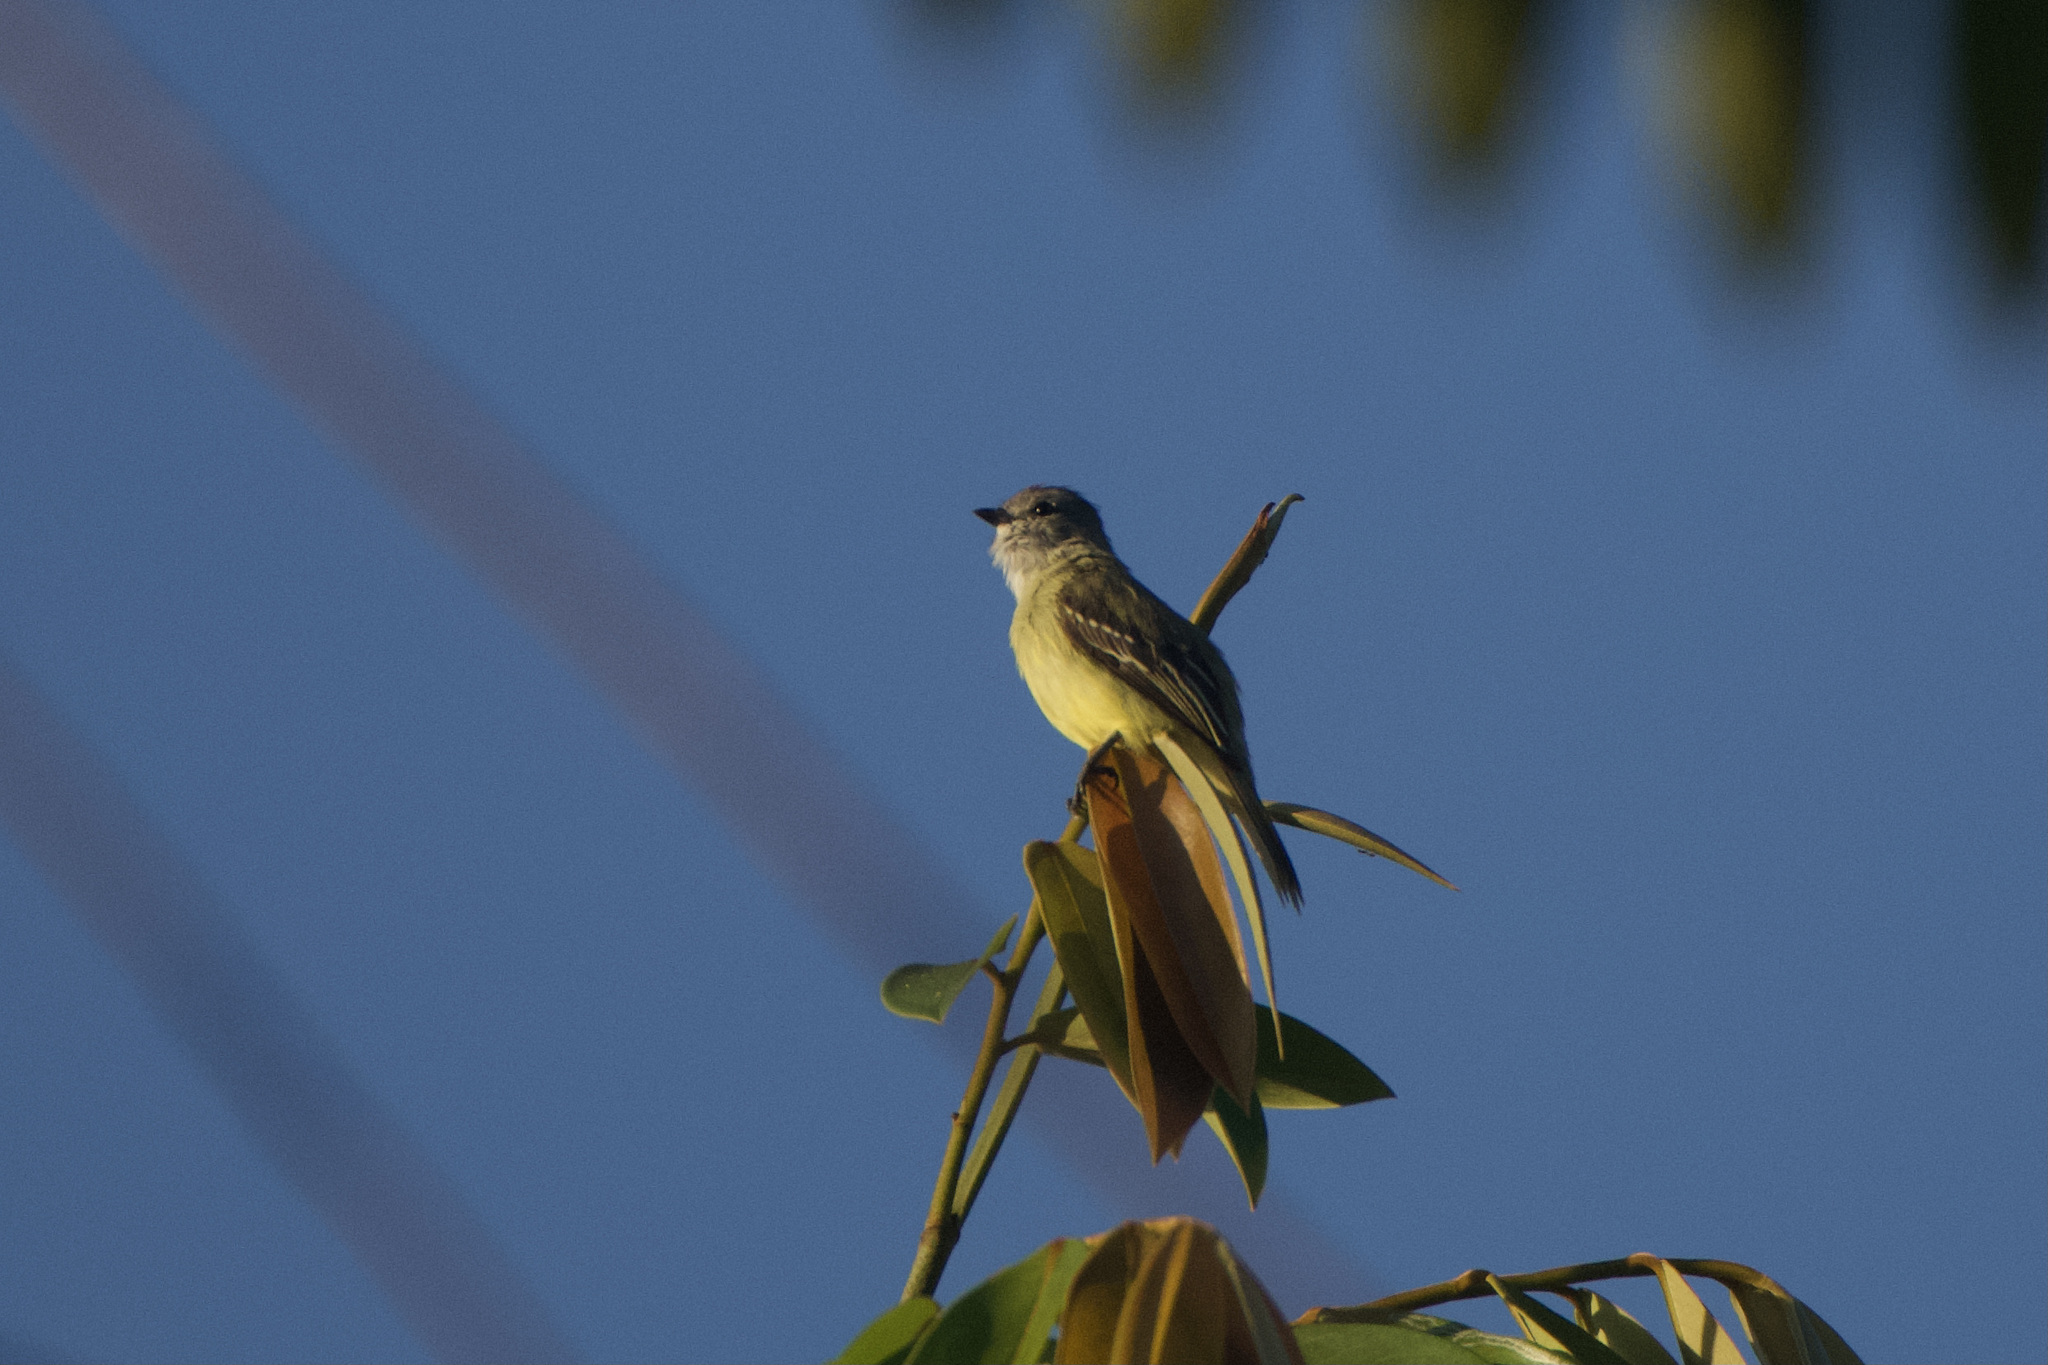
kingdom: Animalia
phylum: Chordata
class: Aves
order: Passeriformes
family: Tyrannidae
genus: Tyrannulus
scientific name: Tyrannulus elatus
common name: Yellow-crowned tyrannulet
